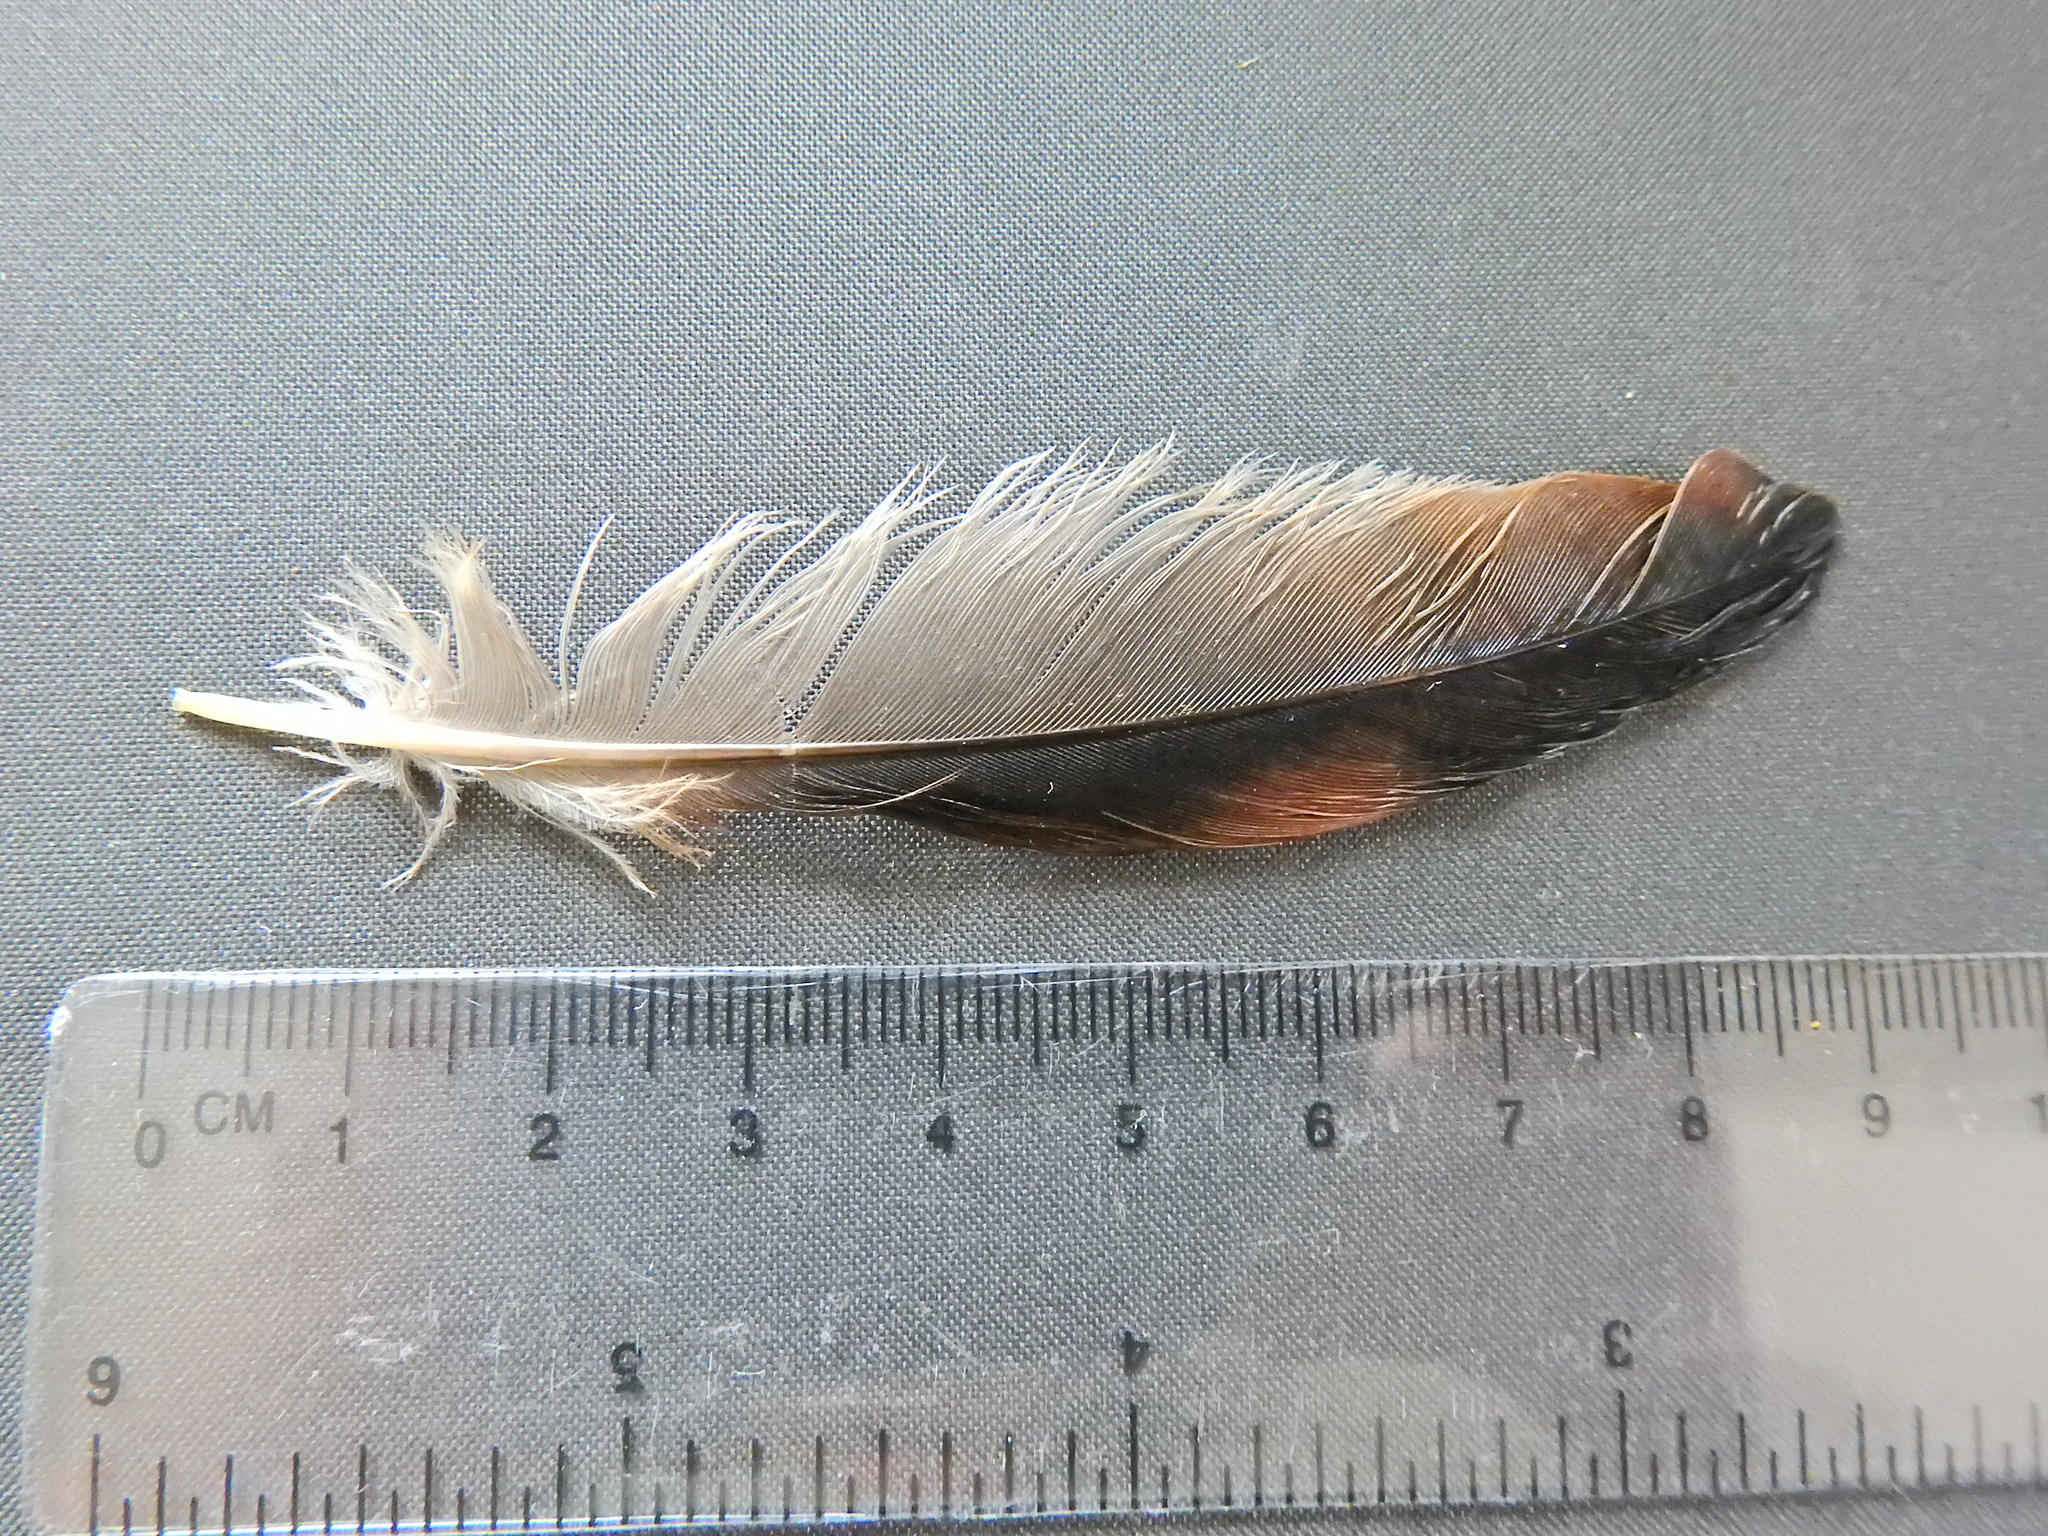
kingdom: Animalia
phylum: Chordata
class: Aves
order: Passeriformes
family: Corvidae
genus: Garrulus
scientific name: Garrulus glandarius
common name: Eurasian jay
